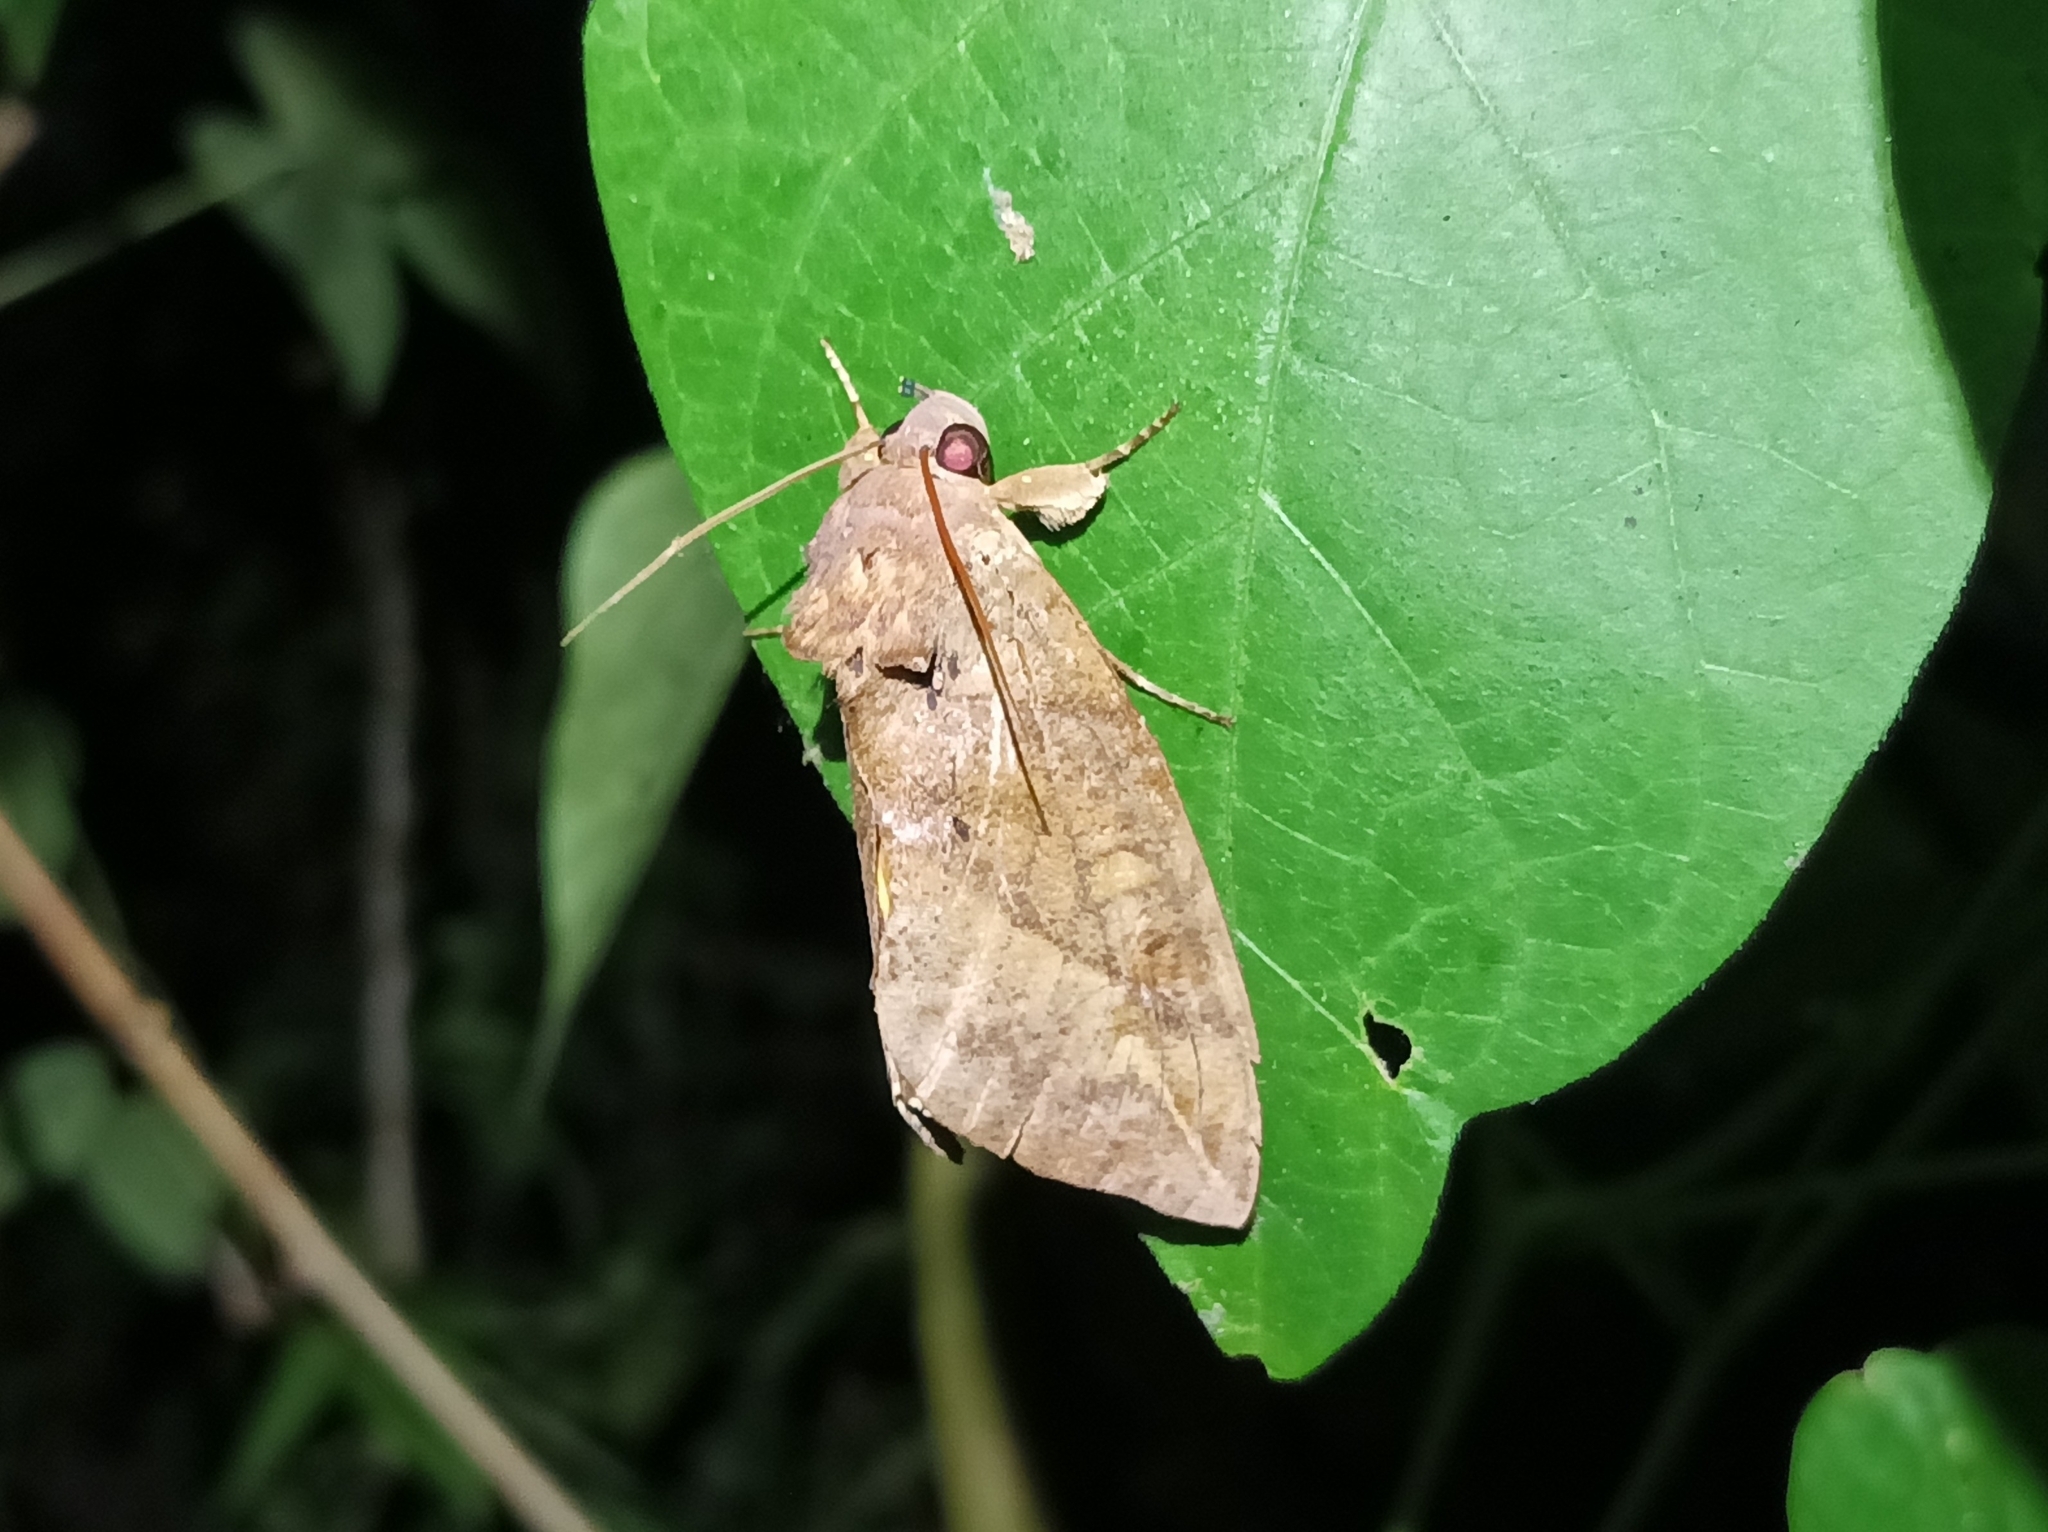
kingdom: Animalia
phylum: Arthropoda
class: Insecta
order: Lepidoptera
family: Erebidae
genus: Eudocima
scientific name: Eudocima phalonia
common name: Wasp
